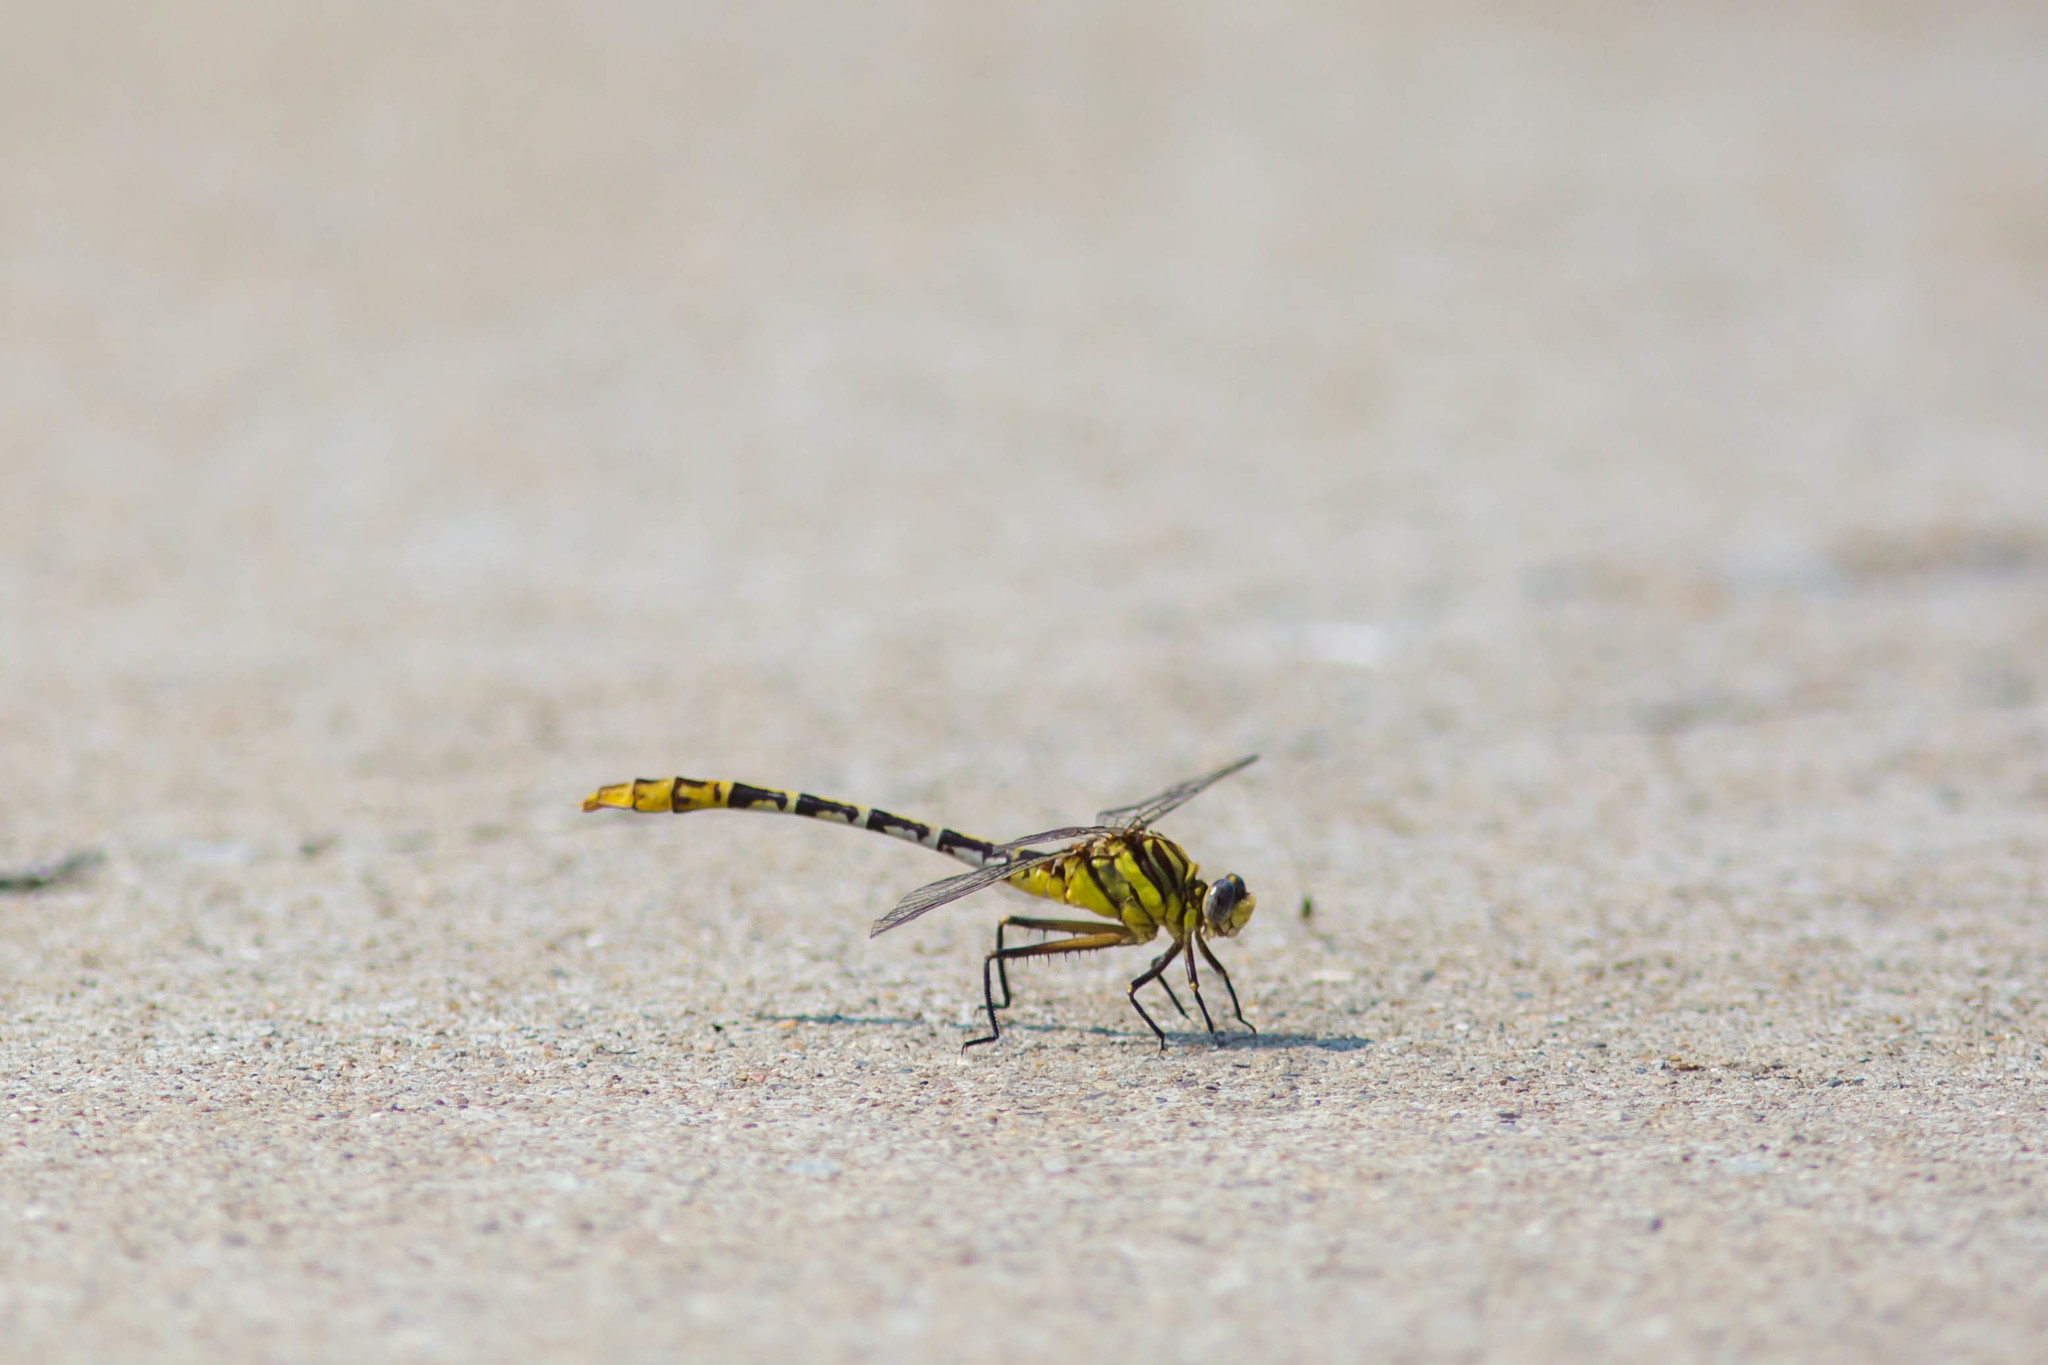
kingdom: Animalia
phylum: Arthropoda
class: Insecta
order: Odonata
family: Gomphidae
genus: Dromogomphus
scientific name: Dromogomphus spoliatus
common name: Flag-tailed spinyleg
